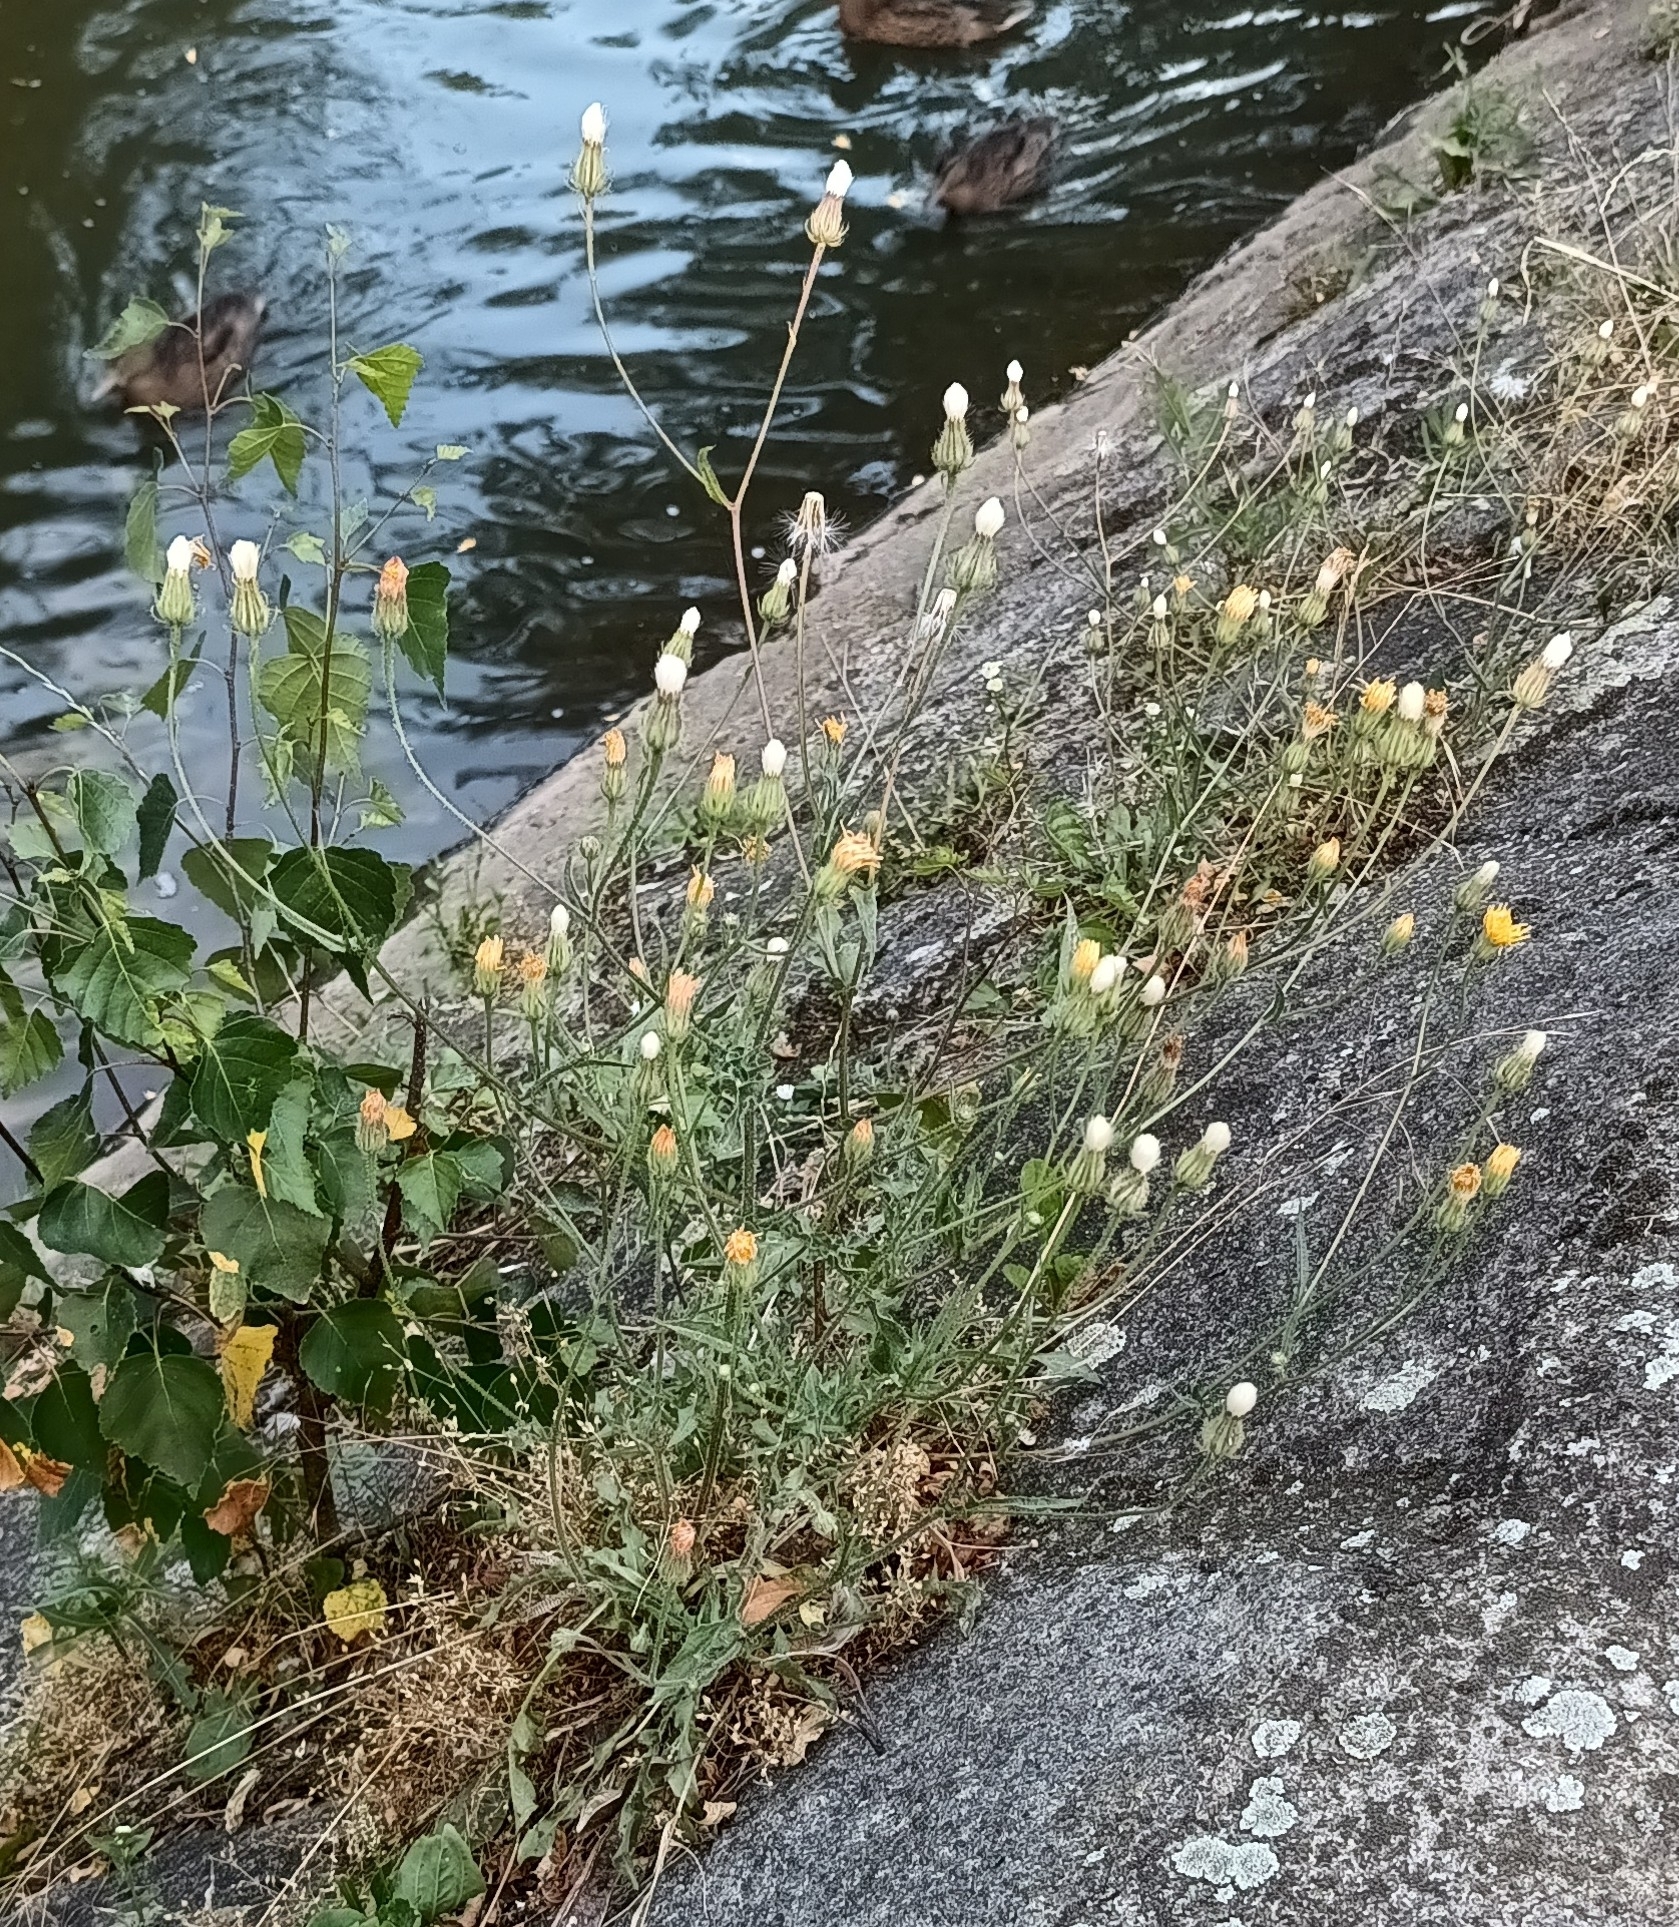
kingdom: Plantae
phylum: Tracheophyta
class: Magnoliopsida
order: Asterales
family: Asteraceae
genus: Crepis
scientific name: Crepis foetida
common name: Stinking hawk's-beard
